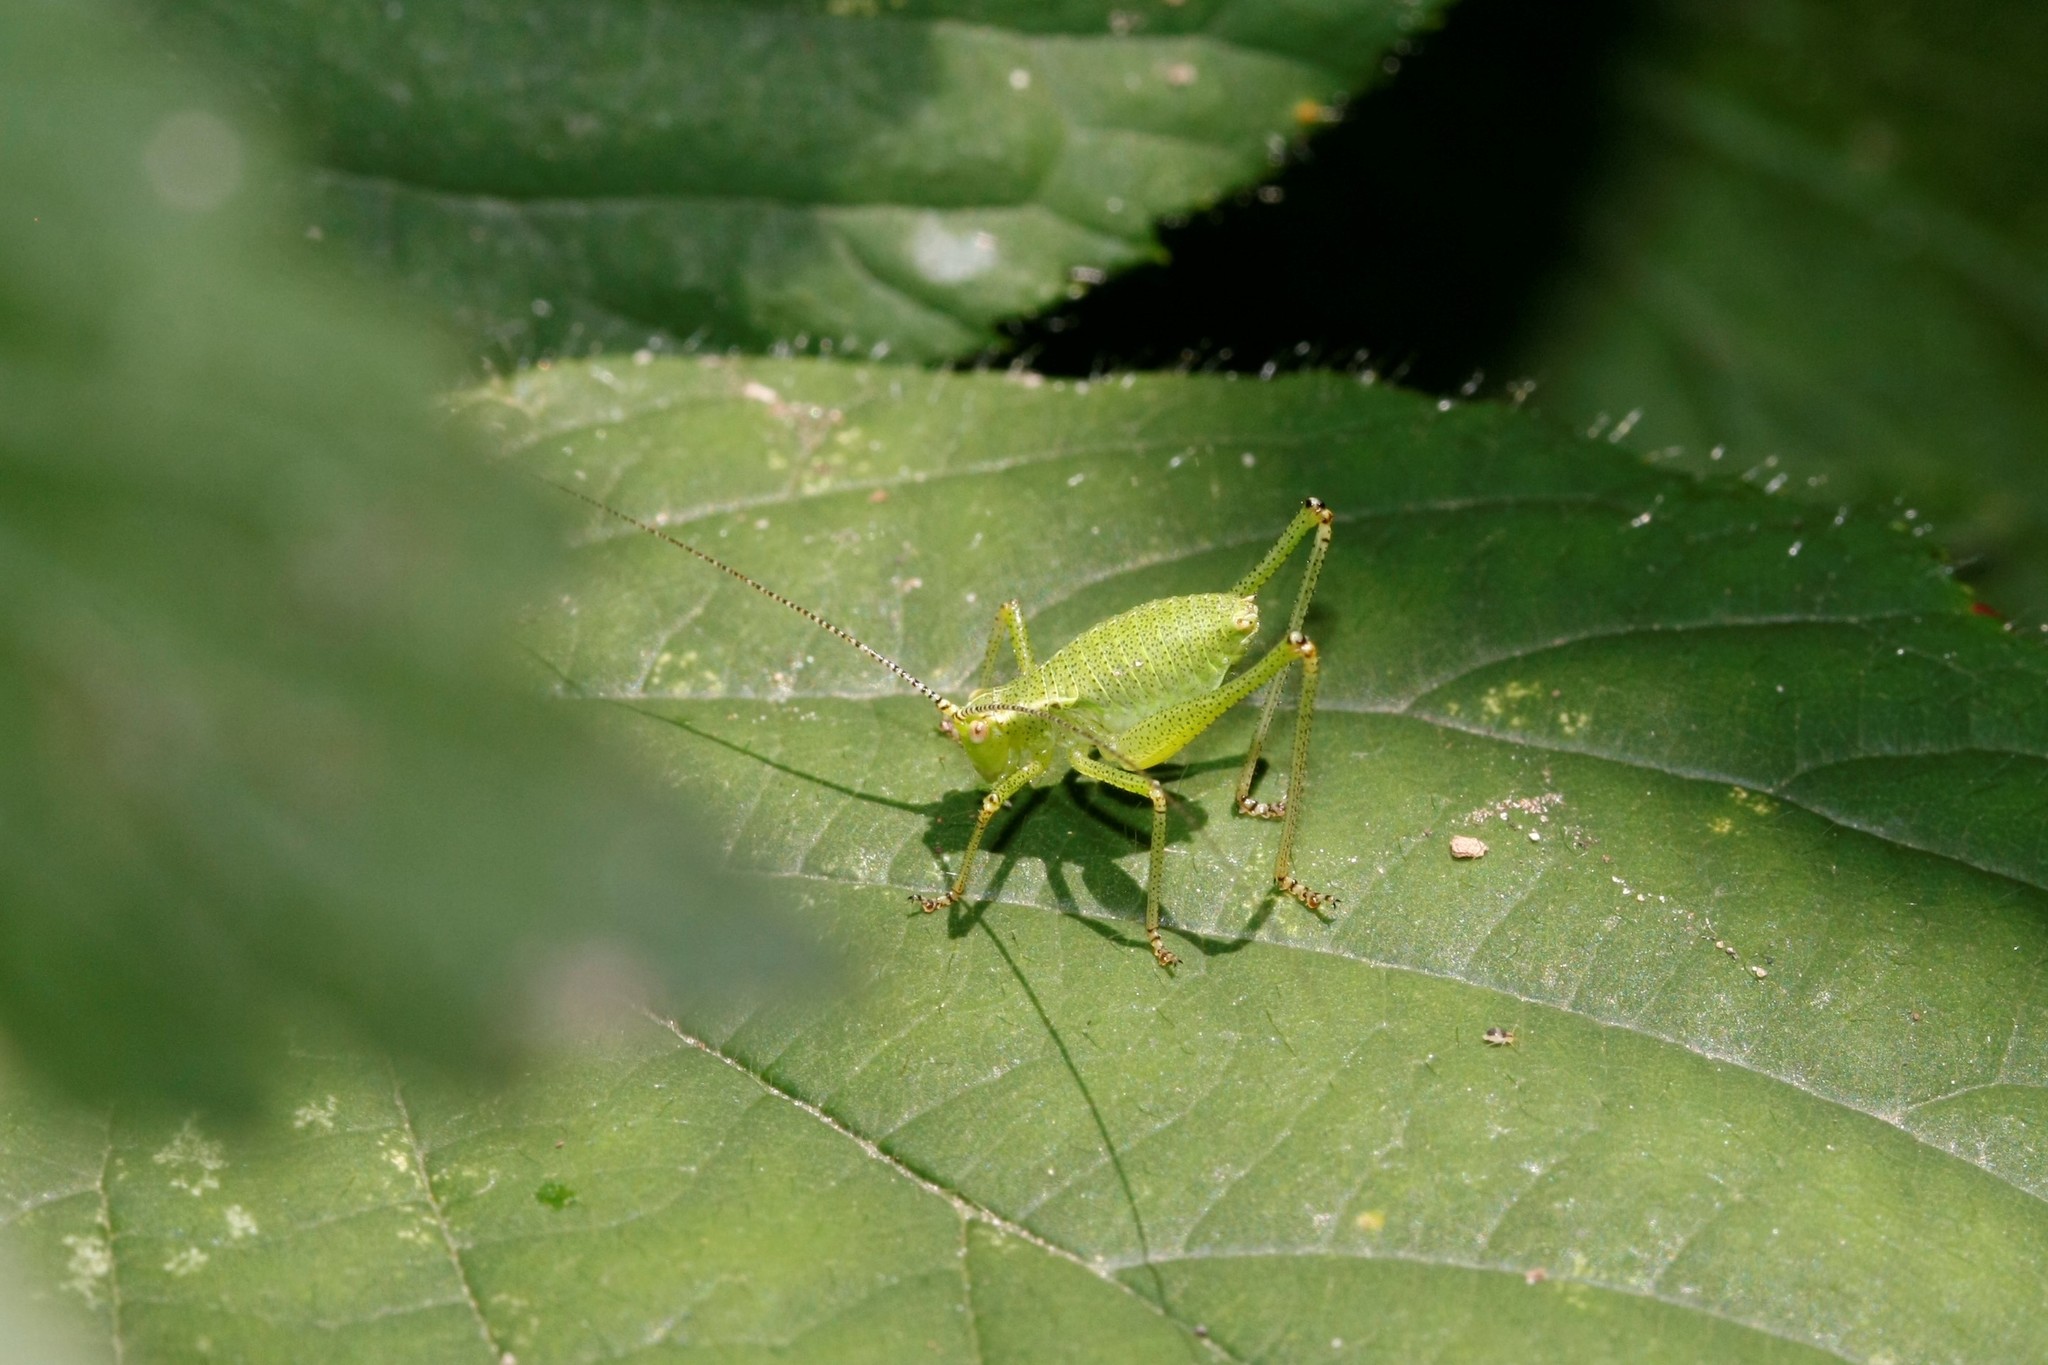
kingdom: Animalia
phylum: Arthropoda
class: Insecta
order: Orthoptera
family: Tettigoniidae
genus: Leptophyes
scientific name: Leptophyes punctatissima
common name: Speckled bush-cricket
